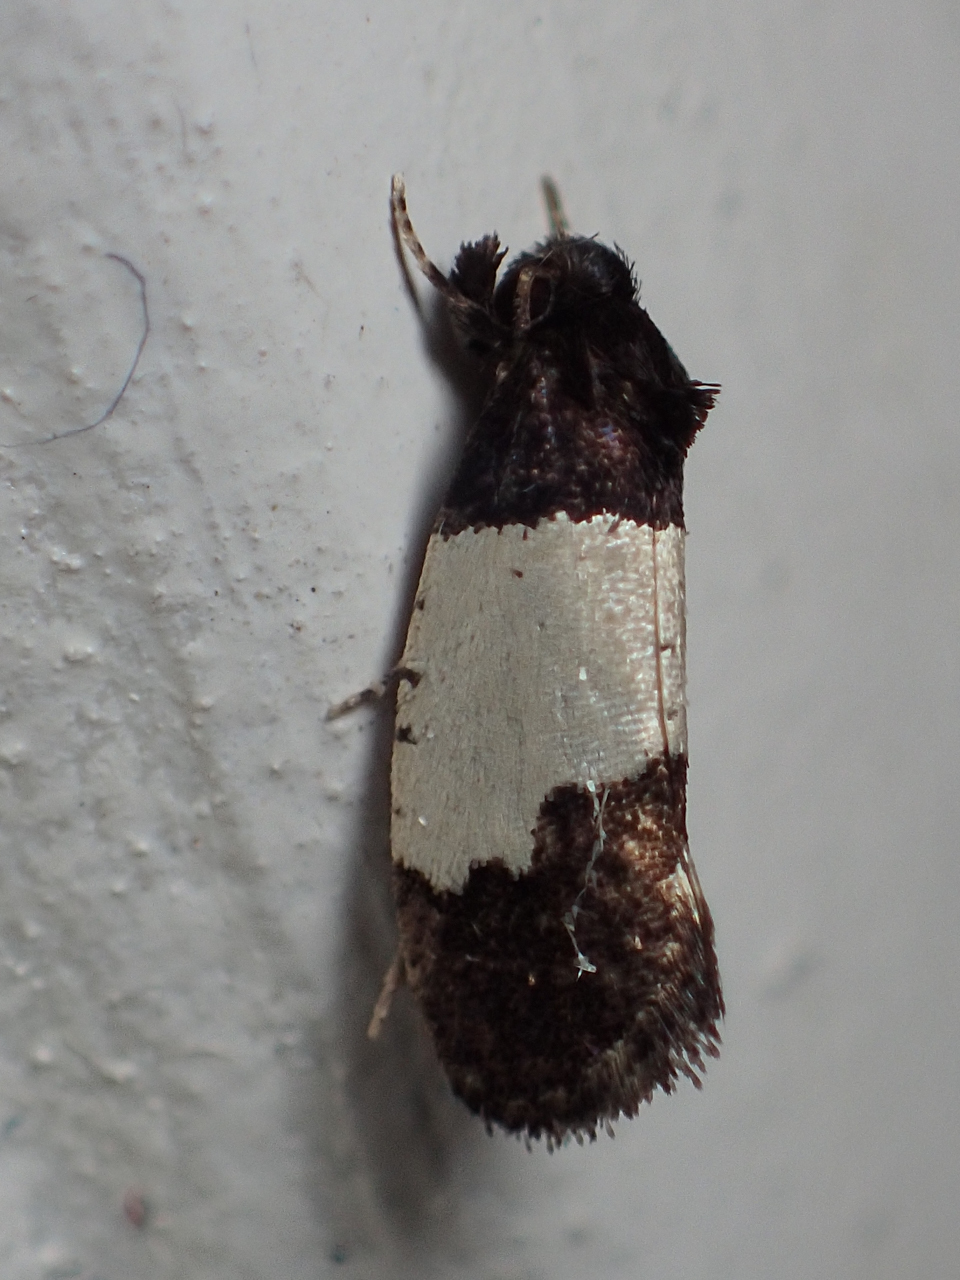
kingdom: Animalia
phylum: Arthropoda
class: Insecta
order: Lepidoptera
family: Psychidae
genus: Kearfottia
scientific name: Kearfottia albifasciella
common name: White-patched kearfottia
